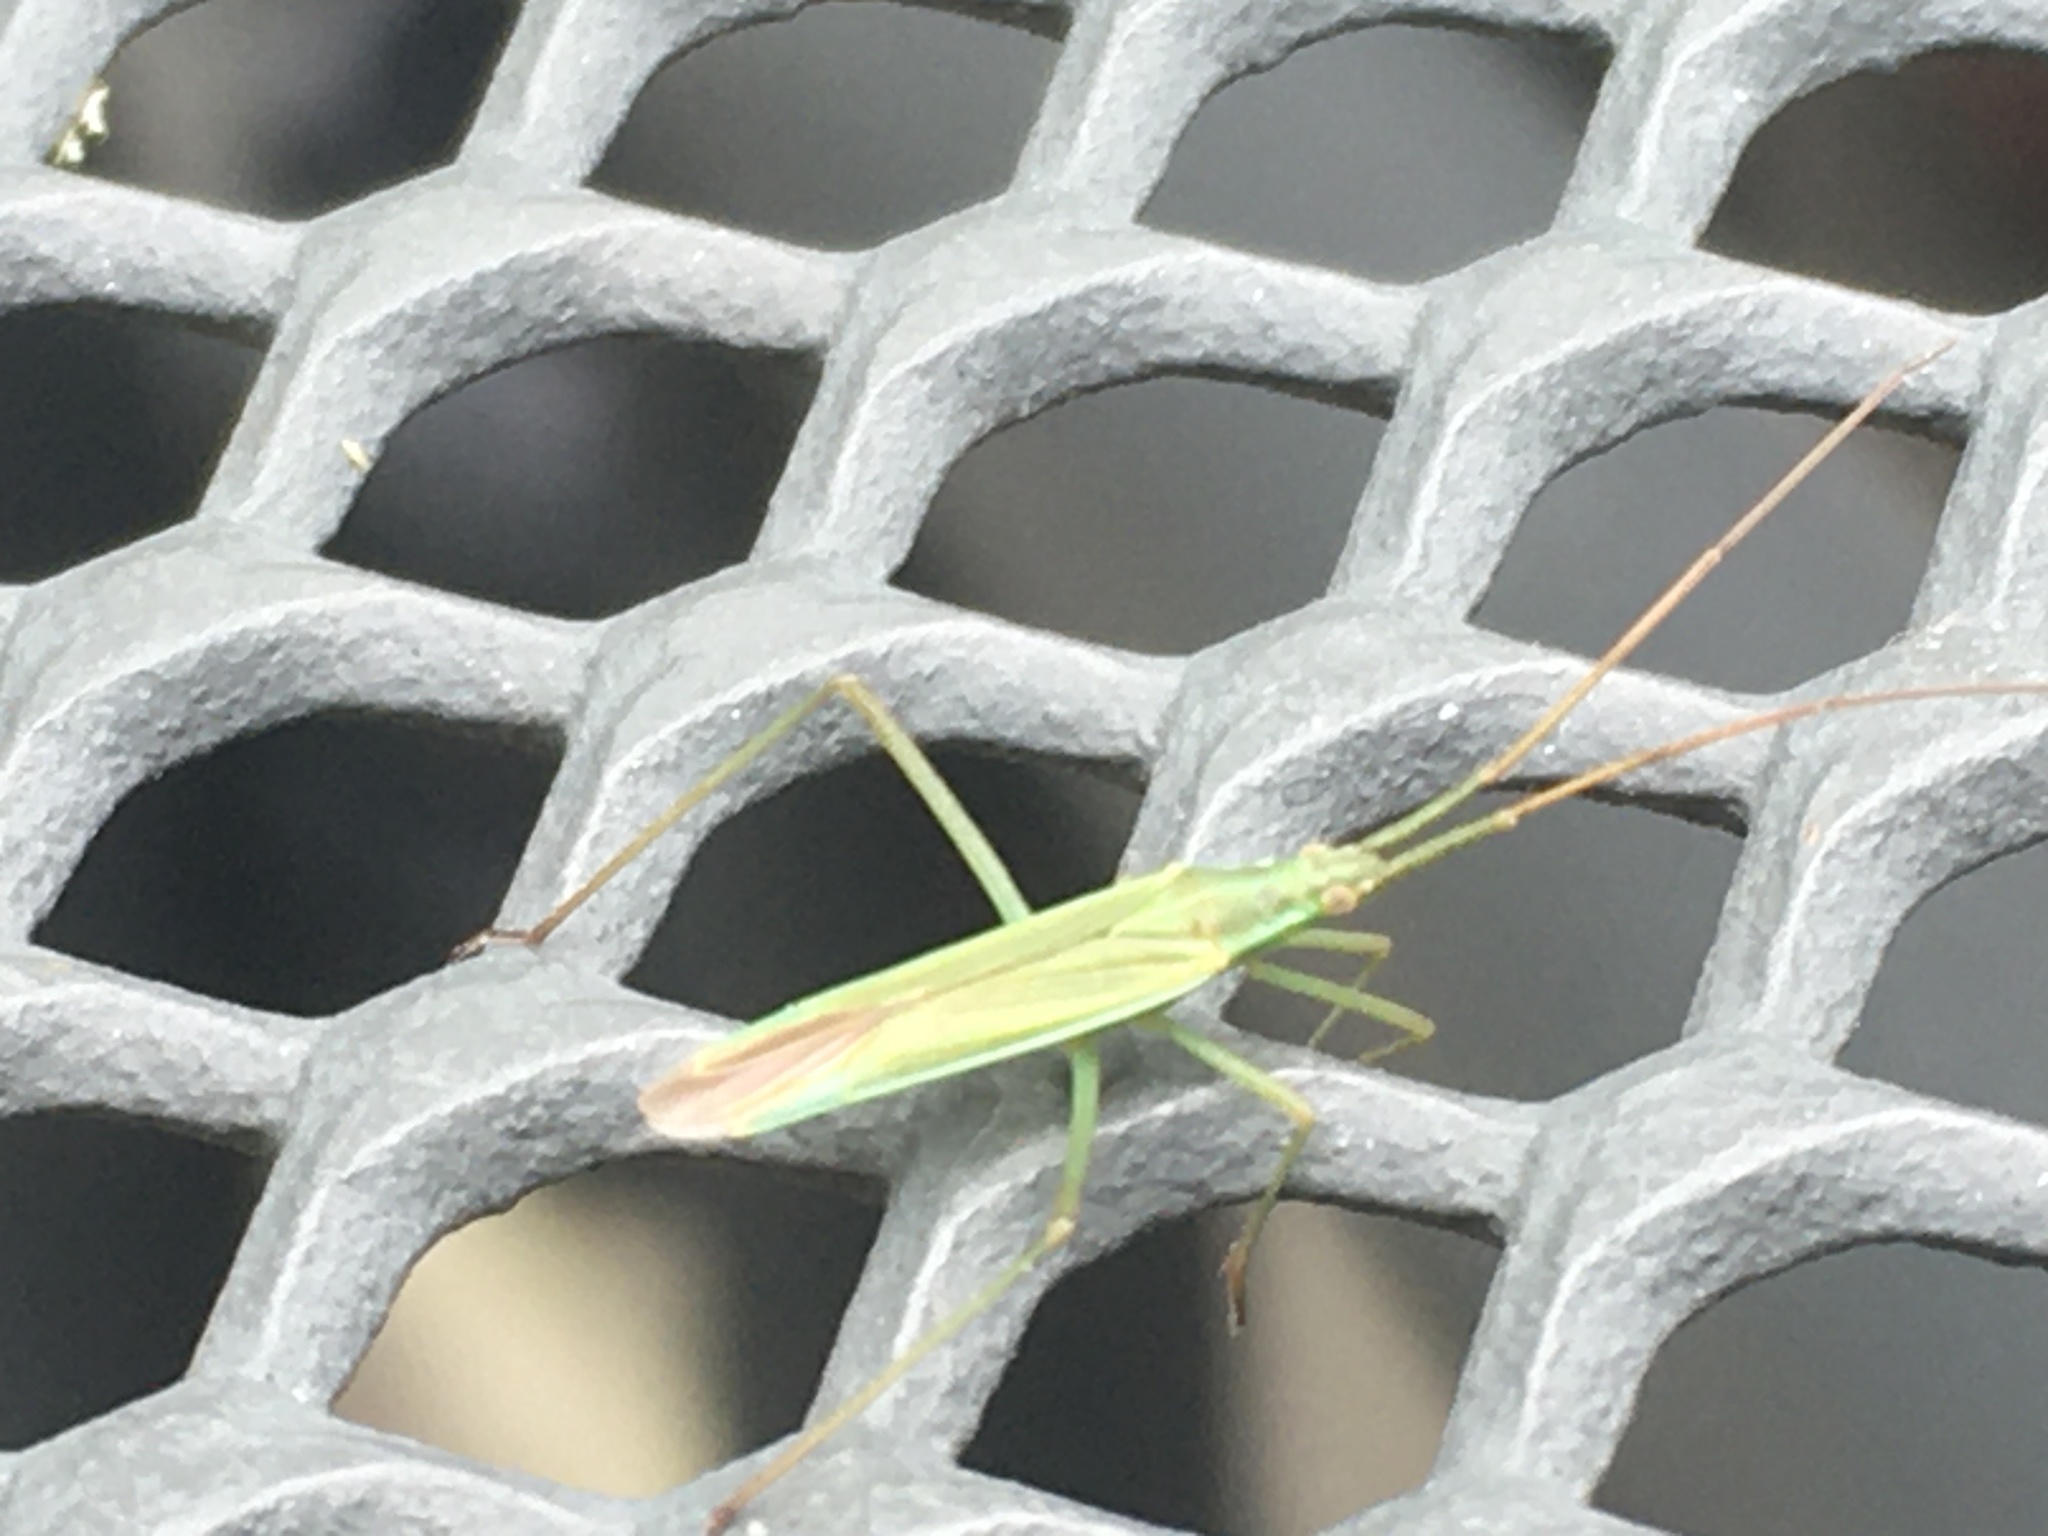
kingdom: Animalia
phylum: Arthropoda
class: Insecta
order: Hemiptera
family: Miridae
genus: Megaloceroea
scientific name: Megaloceroea recticornis
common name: Plant bug
